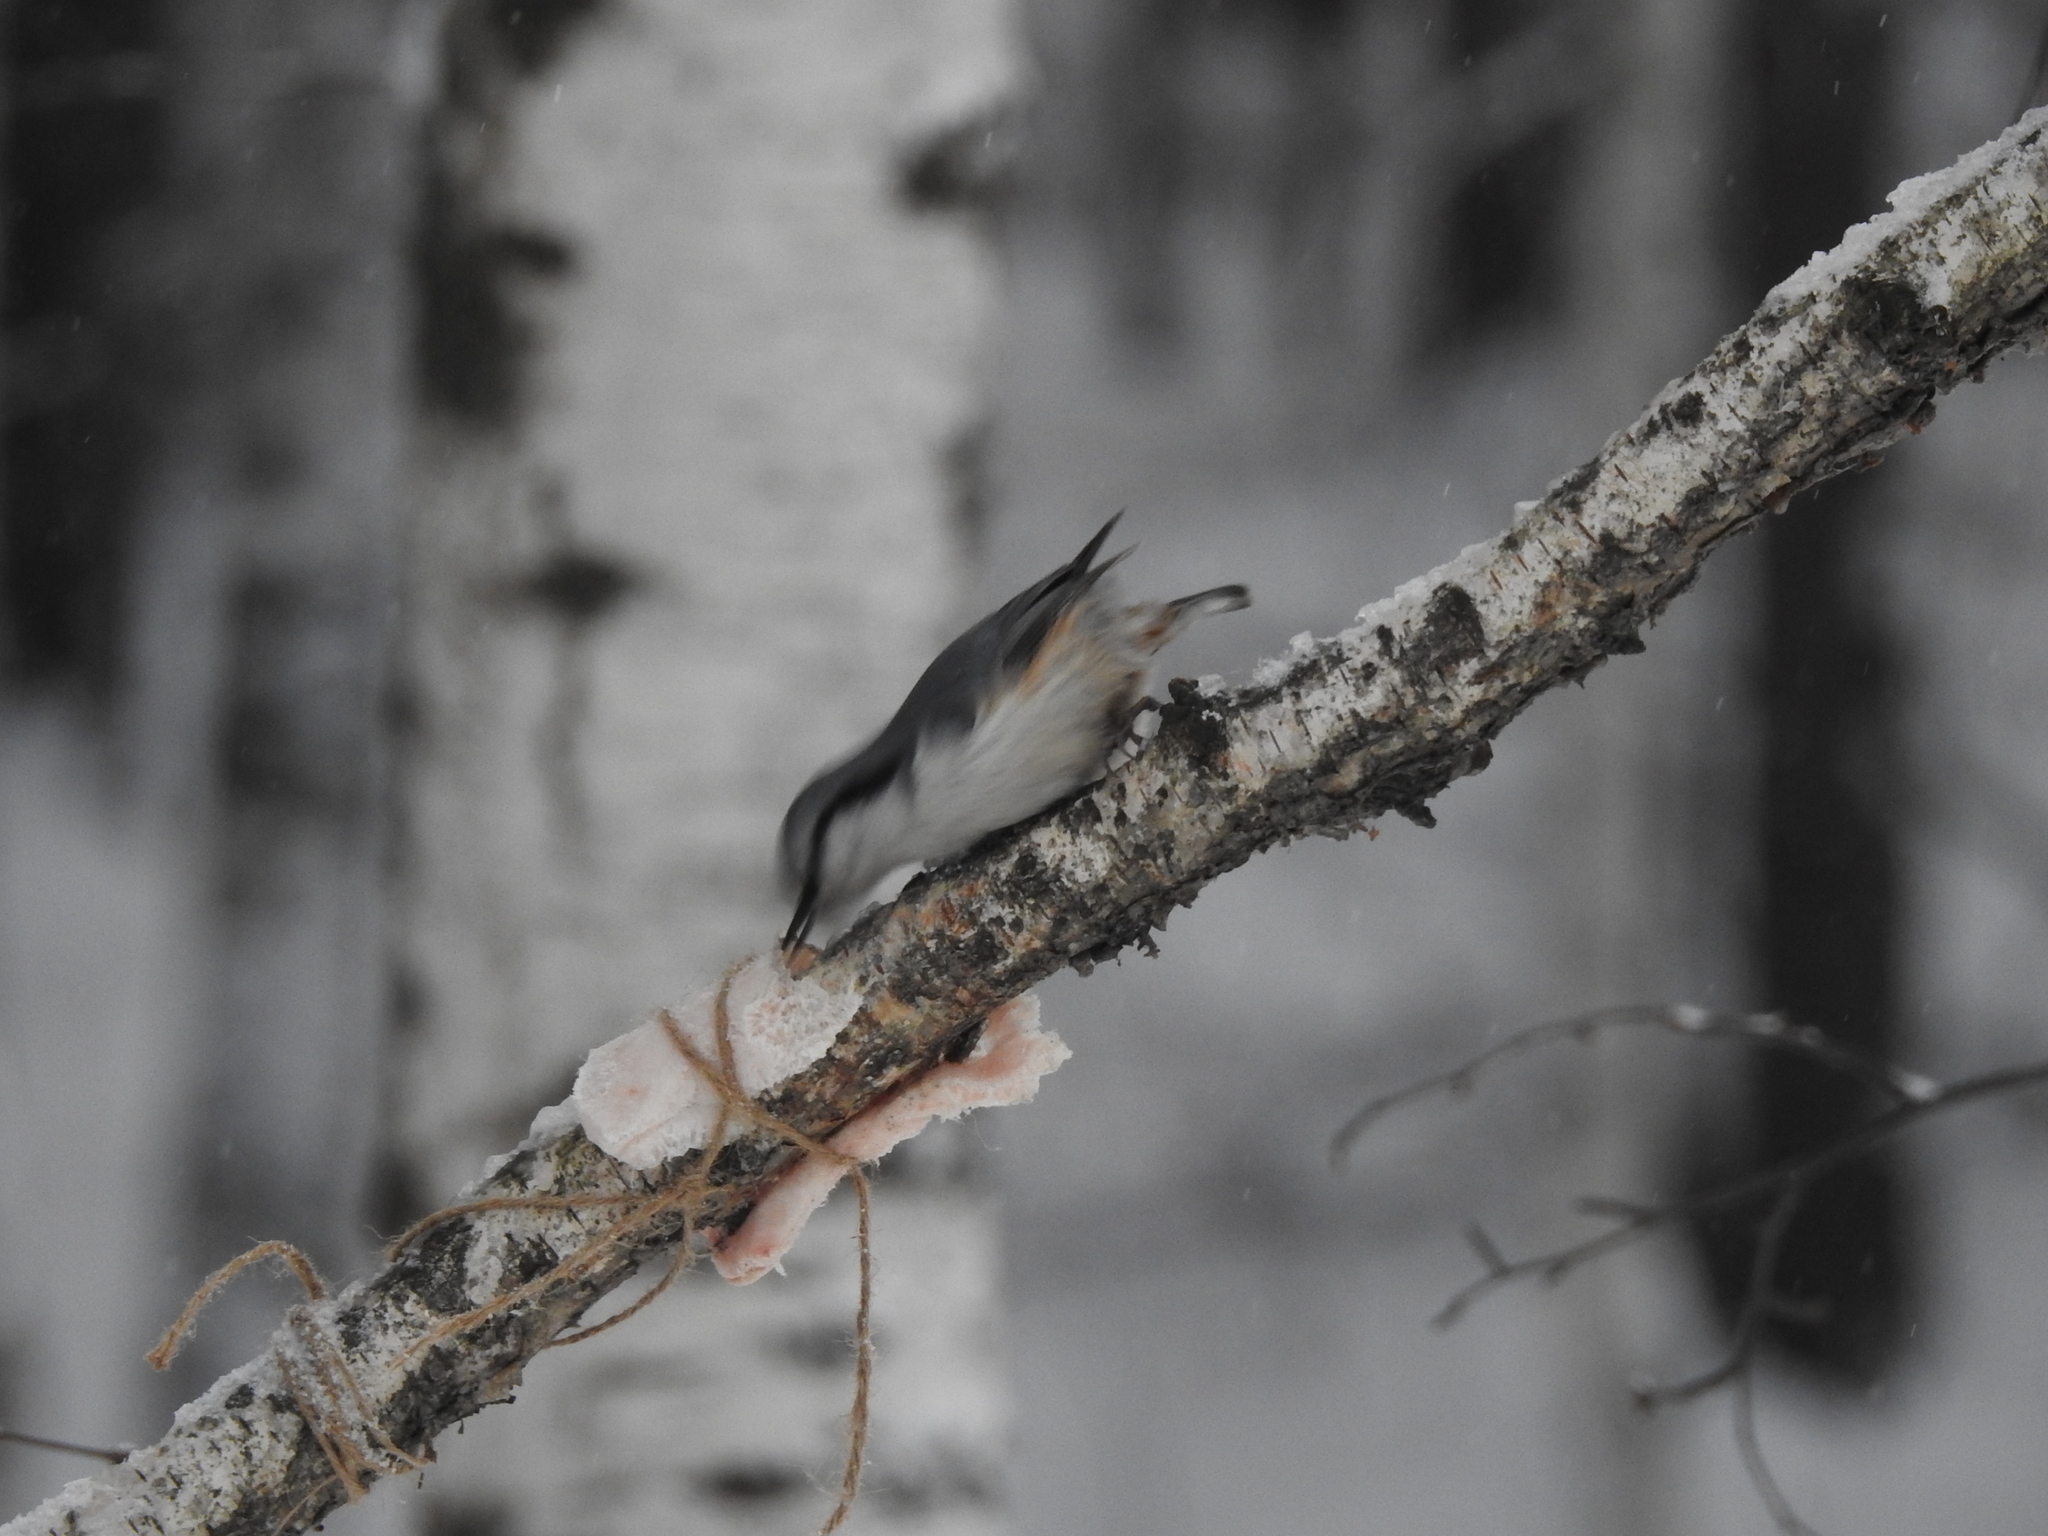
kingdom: Animalia
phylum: Chordata
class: Aves
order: Passeriformes
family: Sittidae
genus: Sitta
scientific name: Sitta europaea
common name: Eurasian nuthatch
